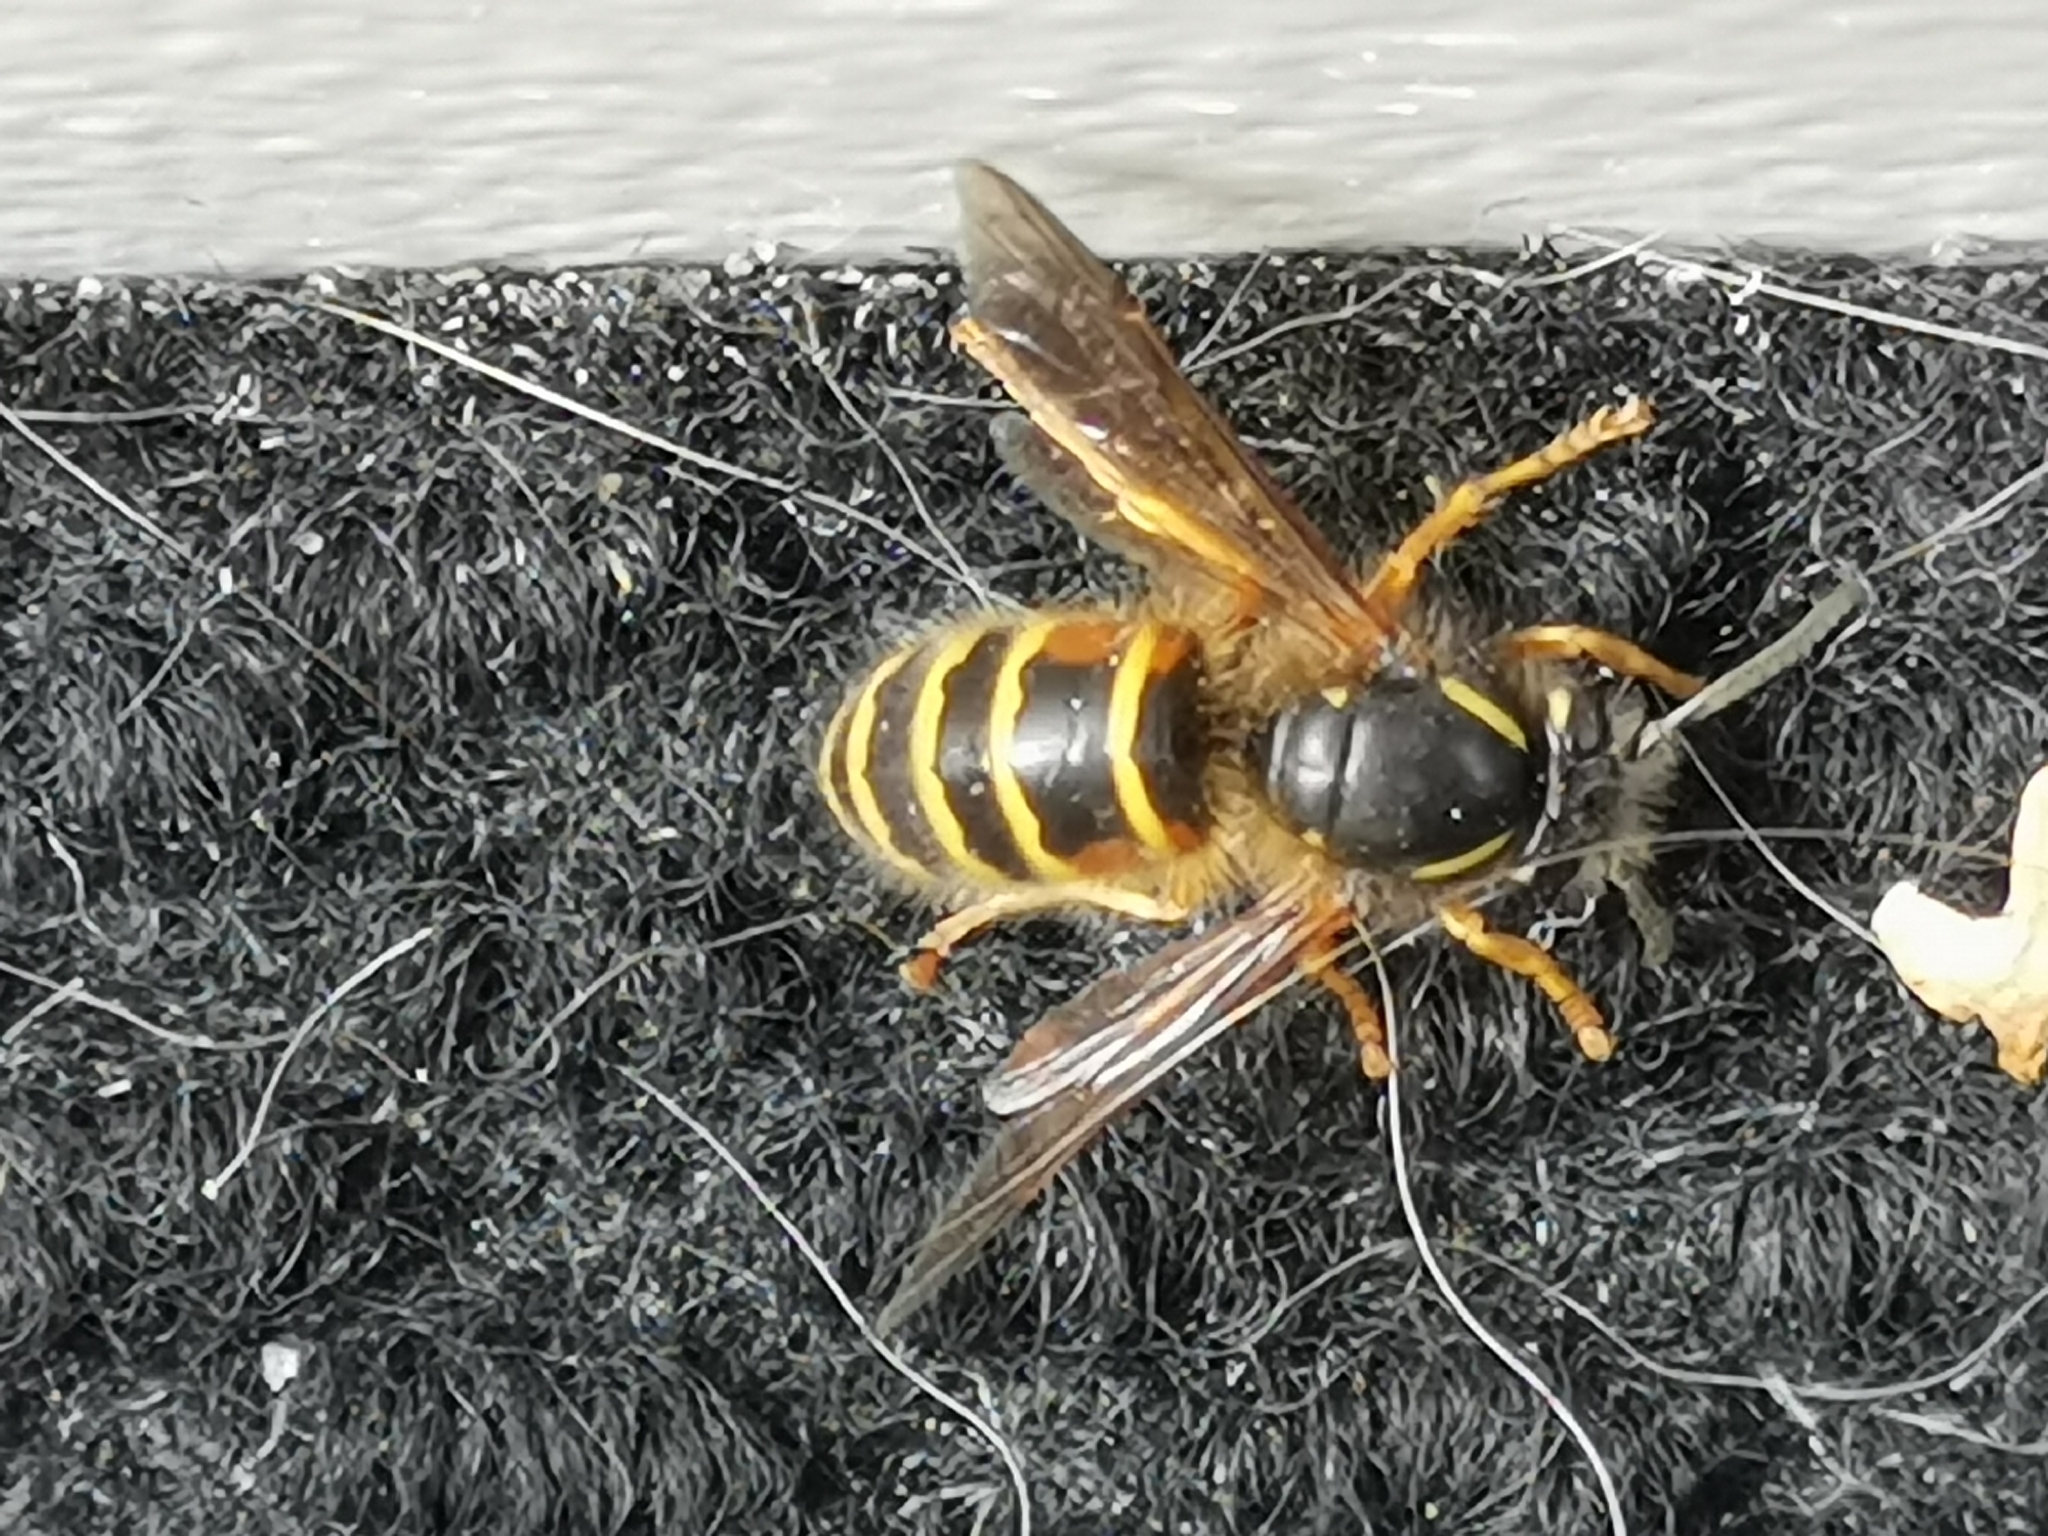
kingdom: Animalia
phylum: Arthropoda
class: Insecta
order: Hymenoptera
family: Vespidae
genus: Dolichovespula
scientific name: Dolichovespula norwegica
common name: Norwegian wasp
